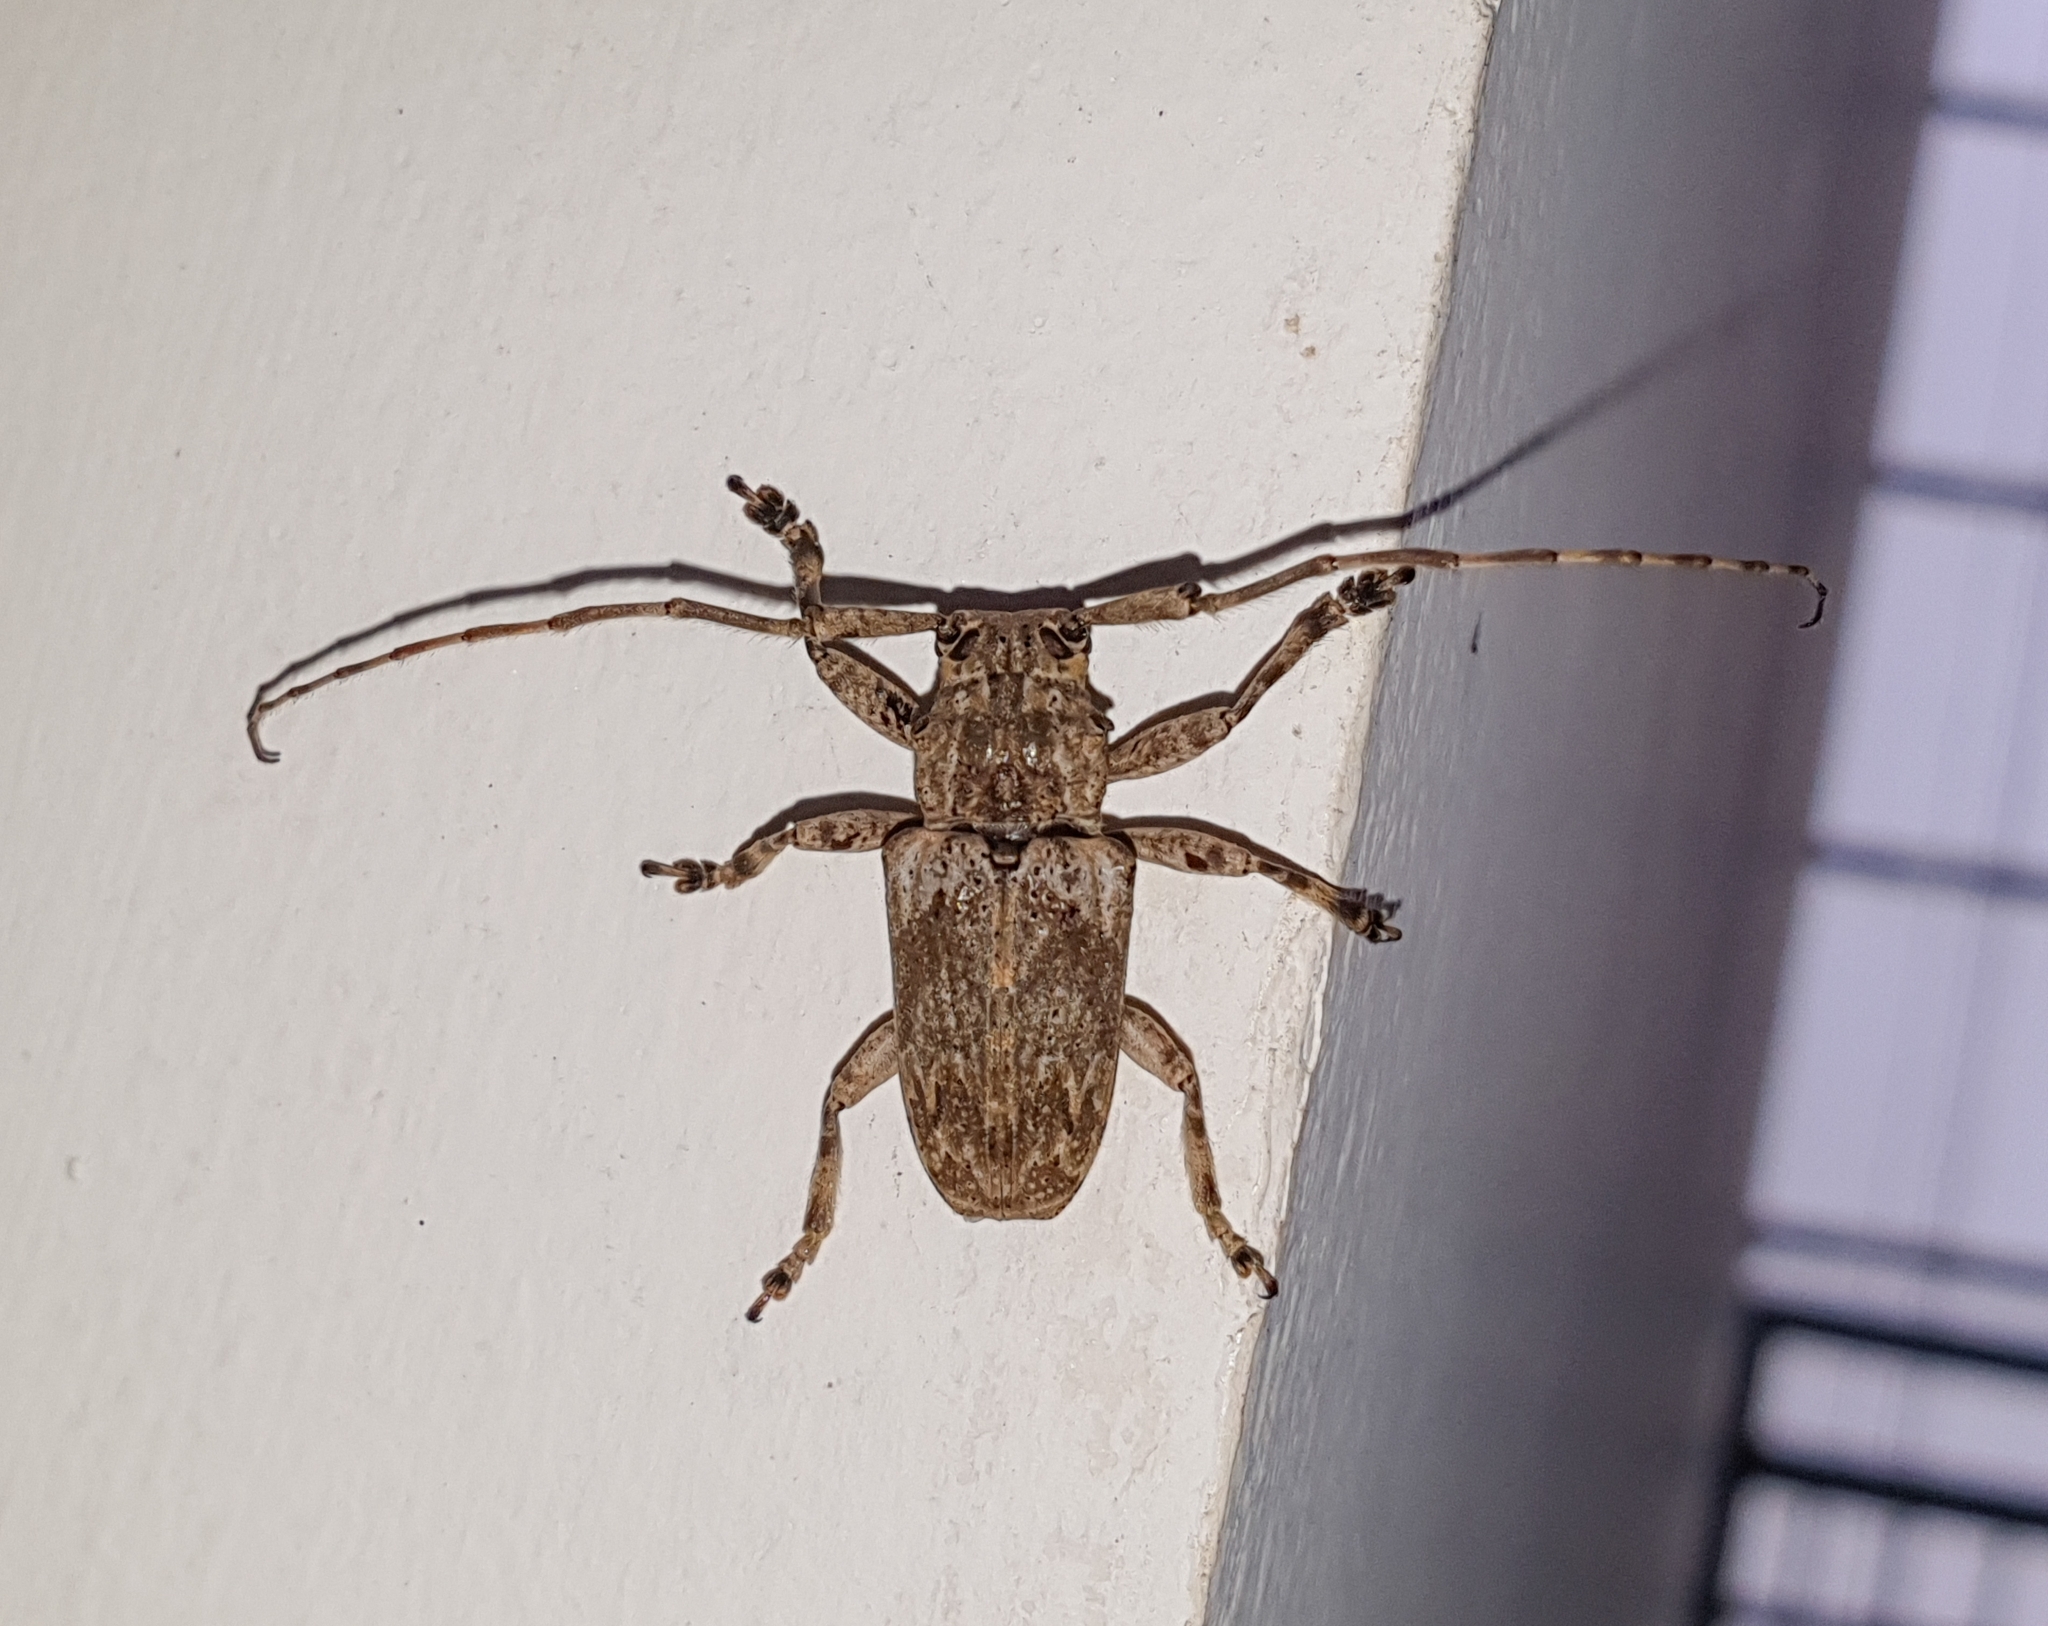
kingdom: Animalia
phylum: Arthropoda
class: Insecta
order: Coleoptera
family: Cerambycidae
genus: Coptops
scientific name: Coptops aedificator
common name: Long-horned beetle
